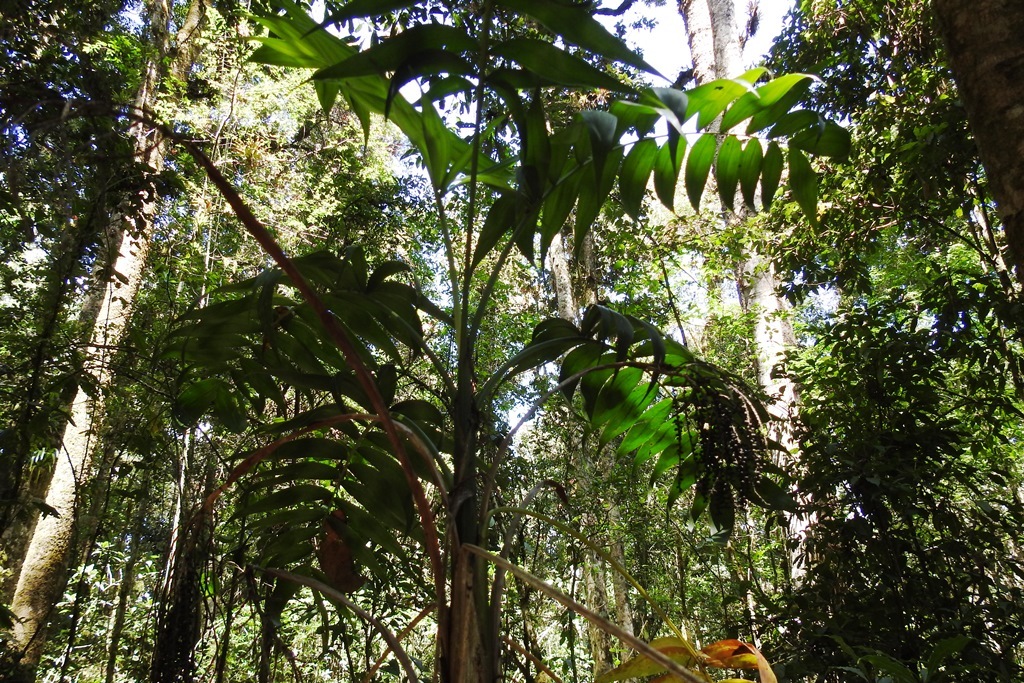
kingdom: Plantae
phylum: Tracheophyta
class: Liliopsida
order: Arecales
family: Arecaceae
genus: Chamaedorea
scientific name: Chamaedorea vulgata
